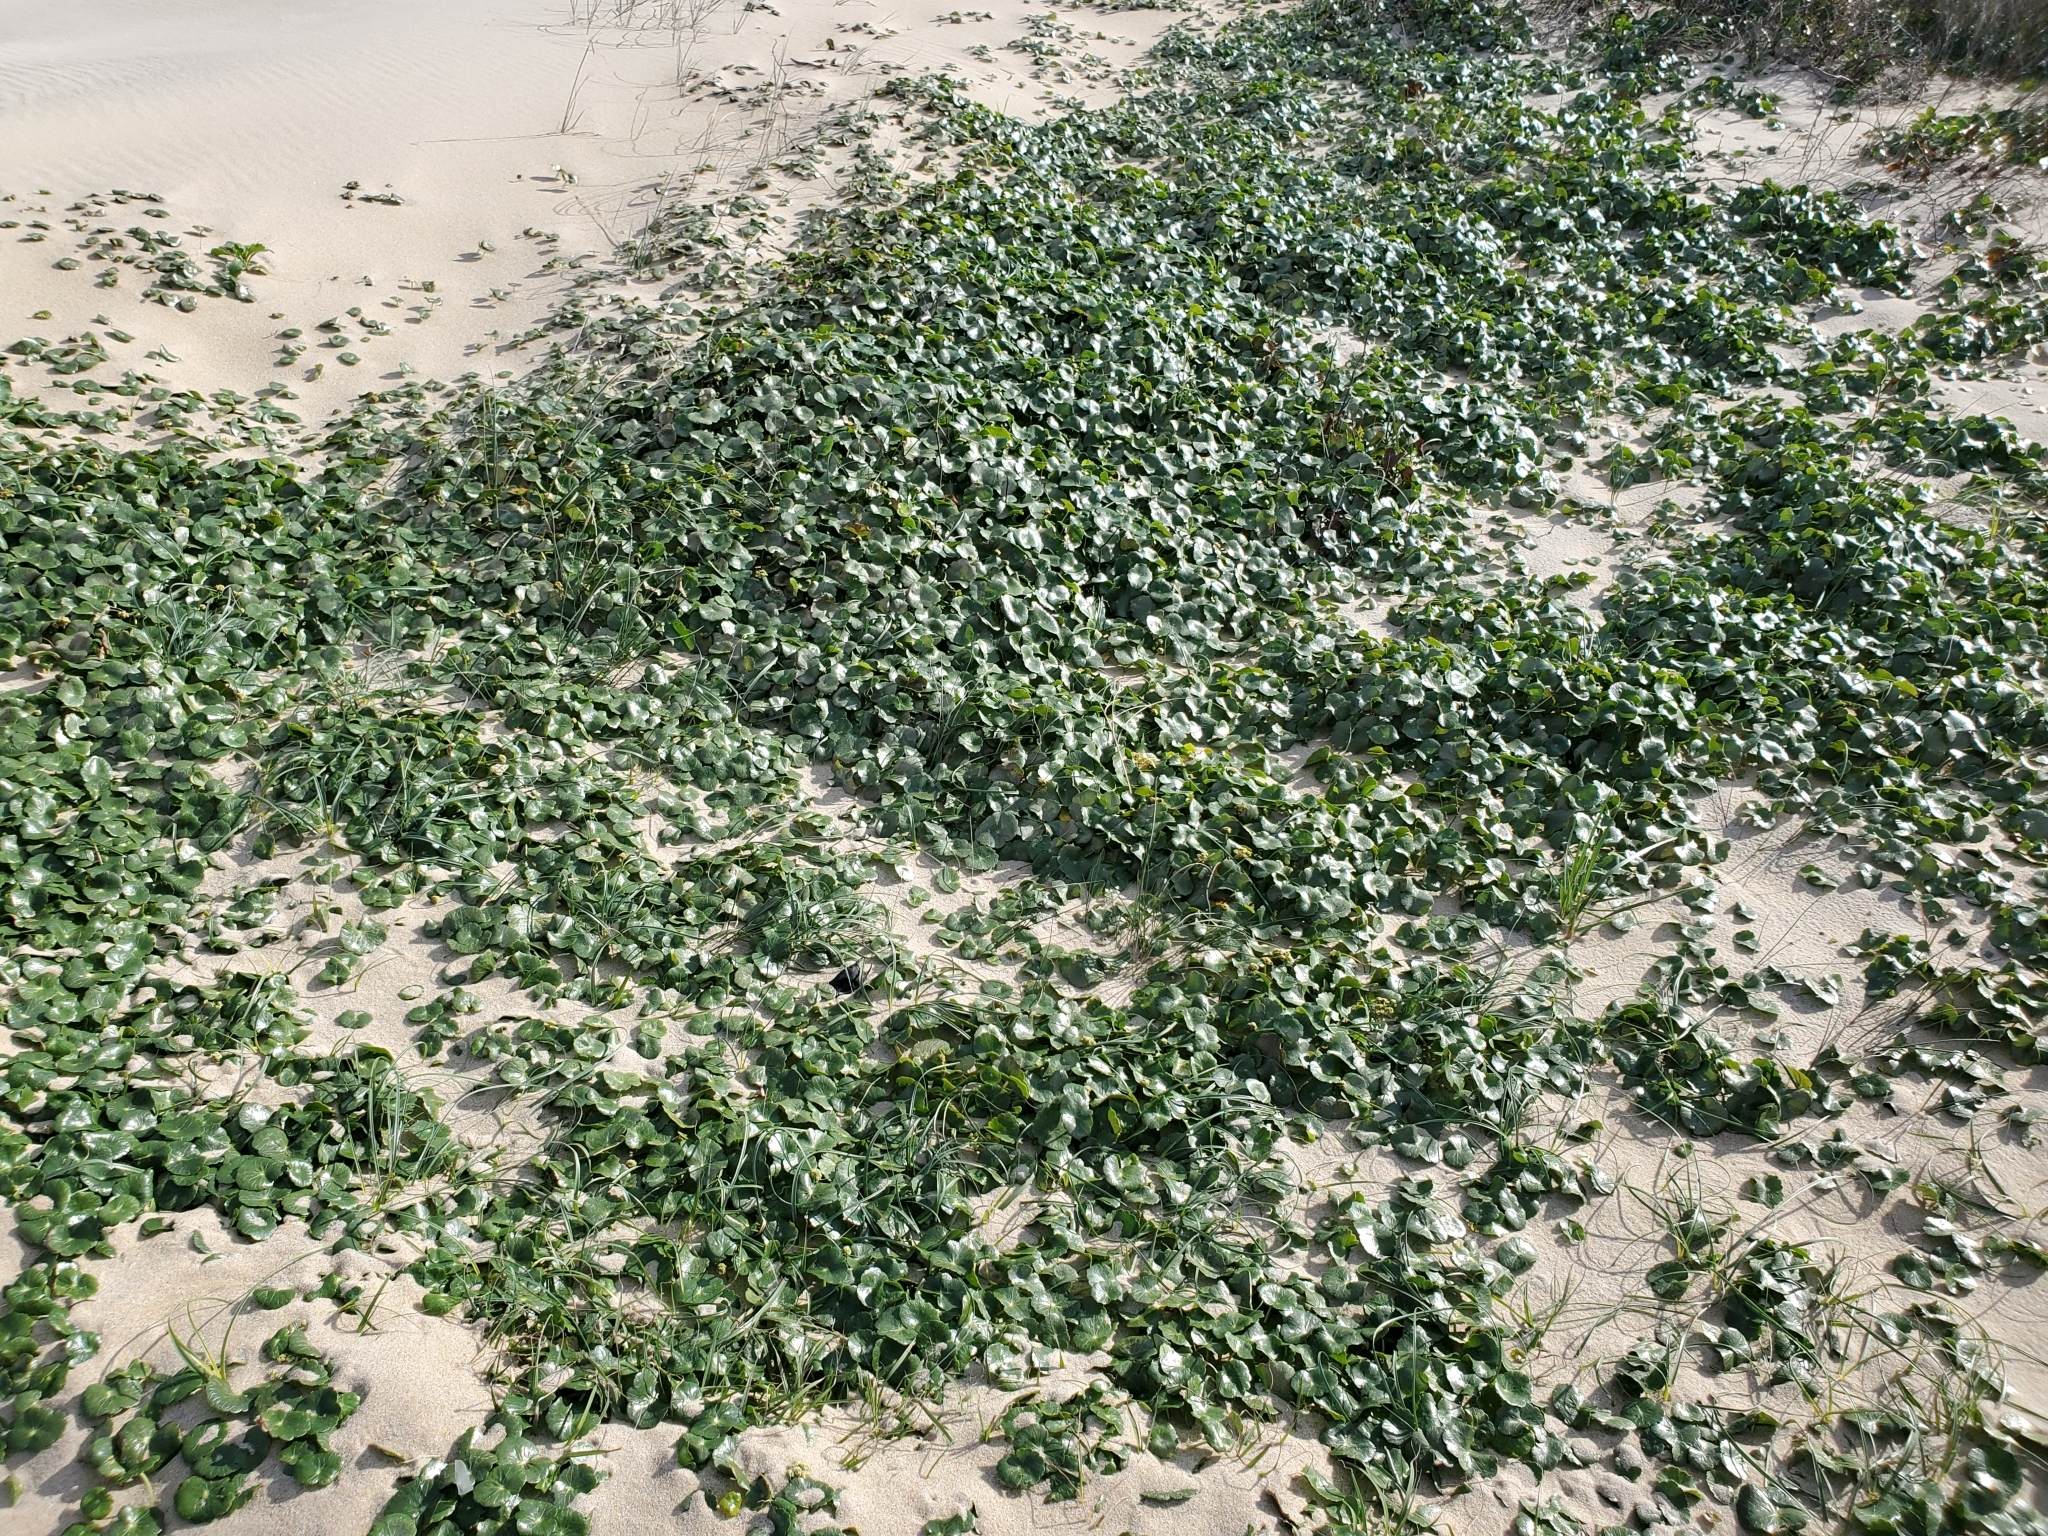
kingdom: Plantae
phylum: Tracheophyta
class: Magnoliopsida
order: Apiales
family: Araliaceae
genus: Hydrocotyle
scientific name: Hydrocotyle bonariensis
